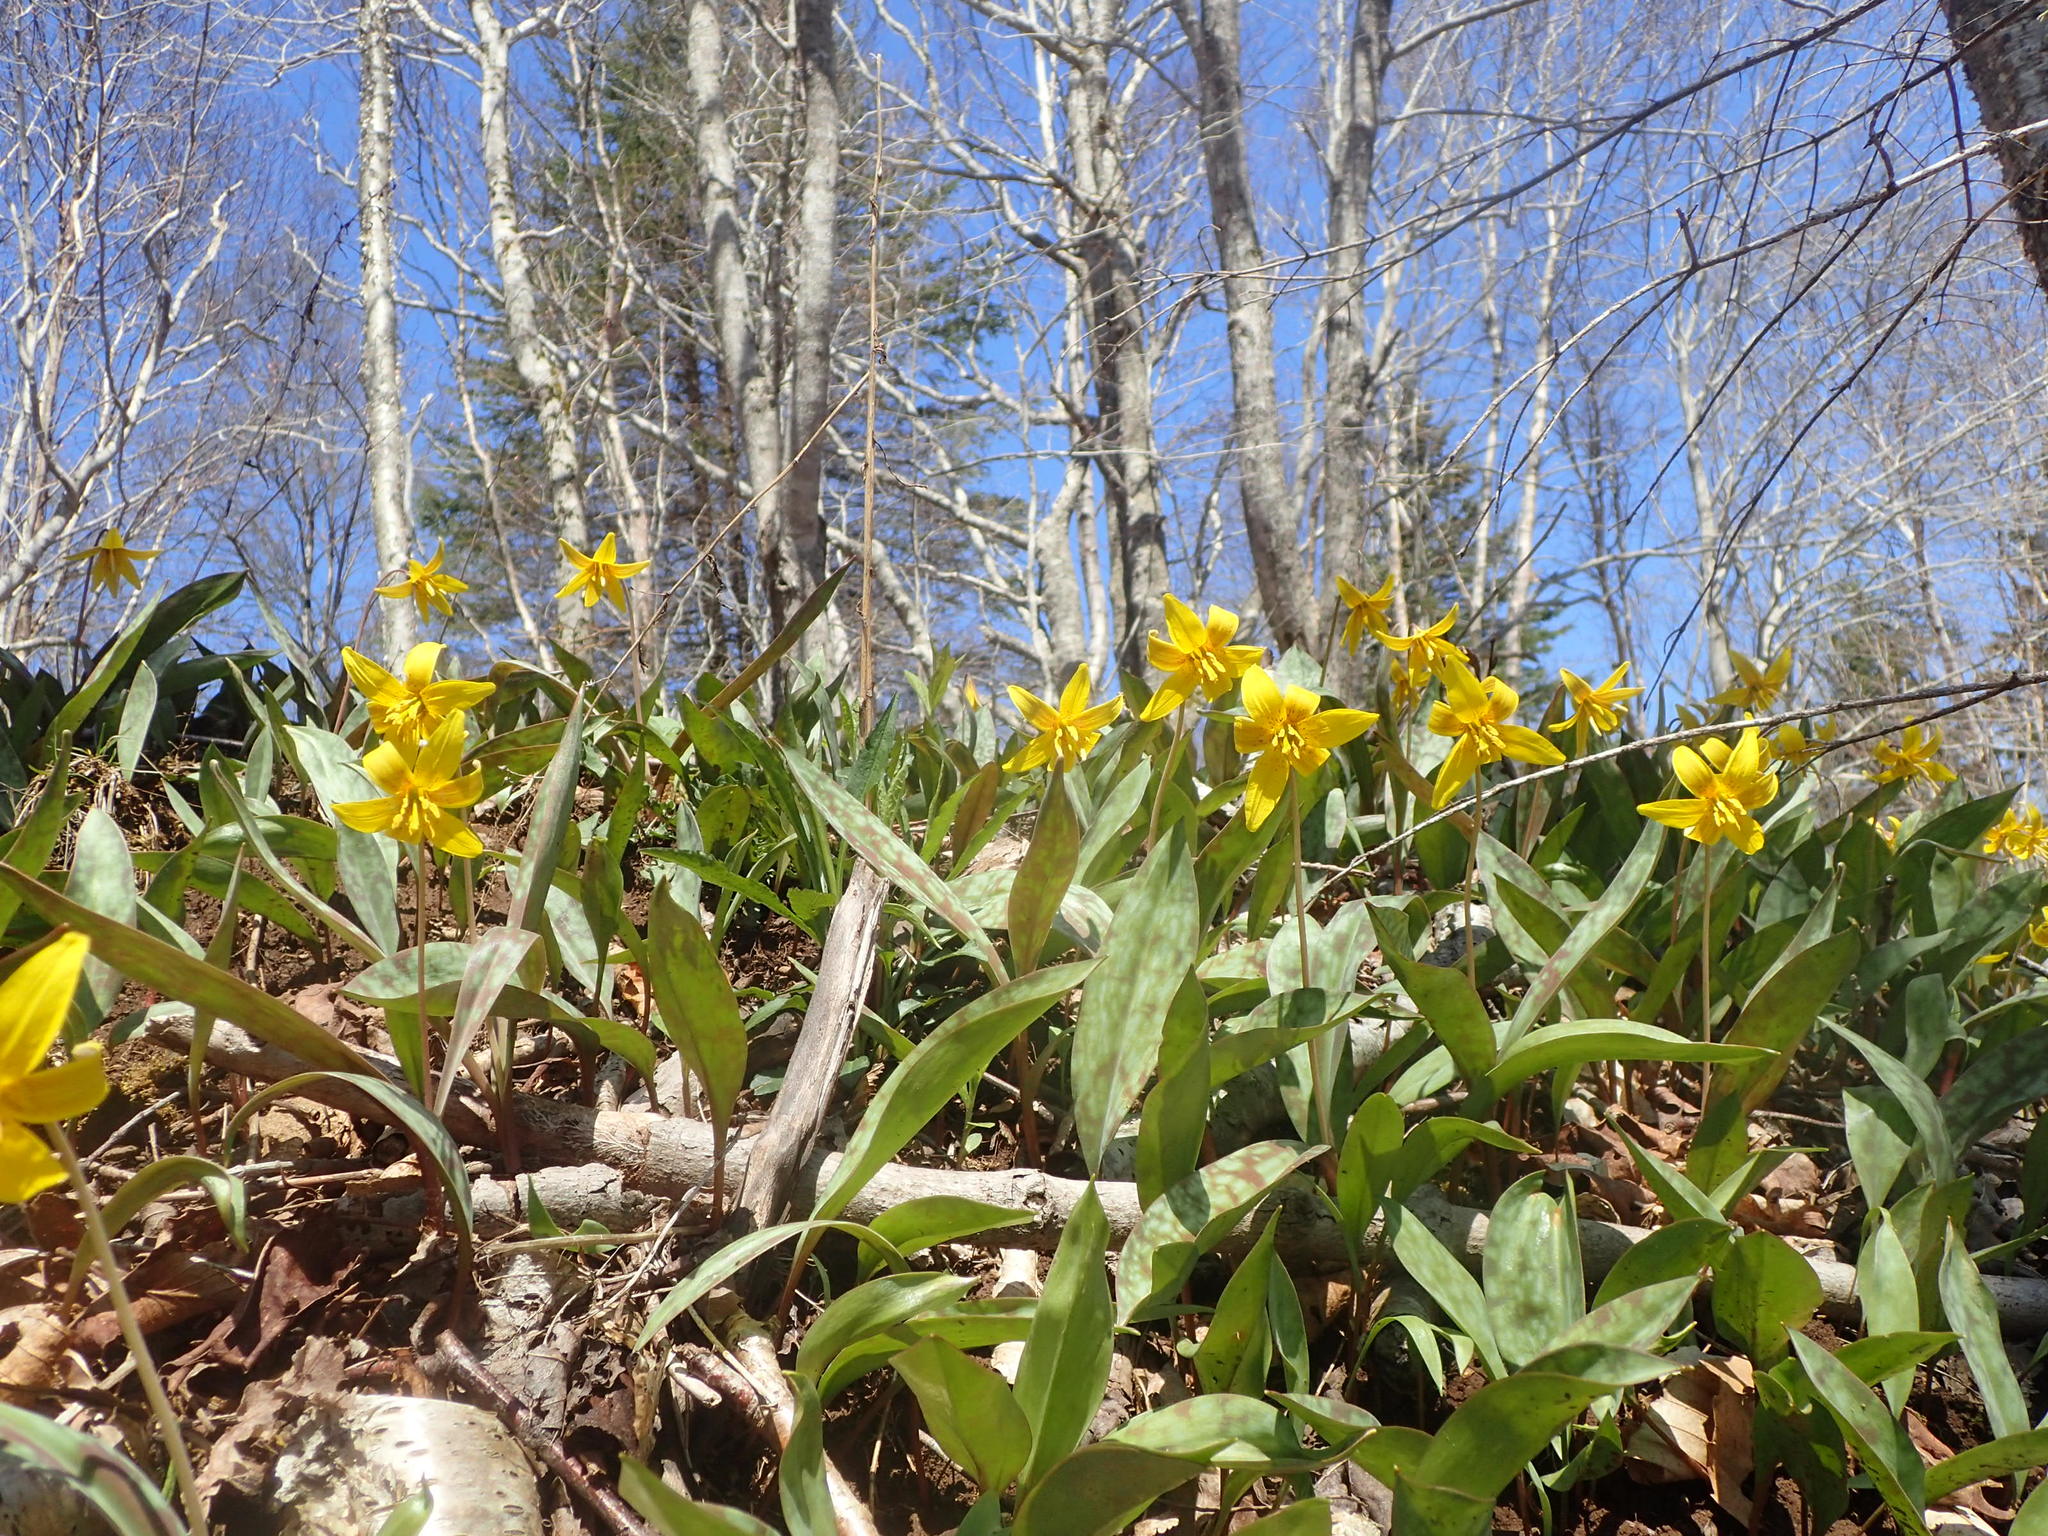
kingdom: Plantae
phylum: Tracheophyta
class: Liliopsida
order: Liliales
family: Liliaceae
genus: Erythronium
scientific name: Erythronium americanum
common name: Yellow adder's-tongue
